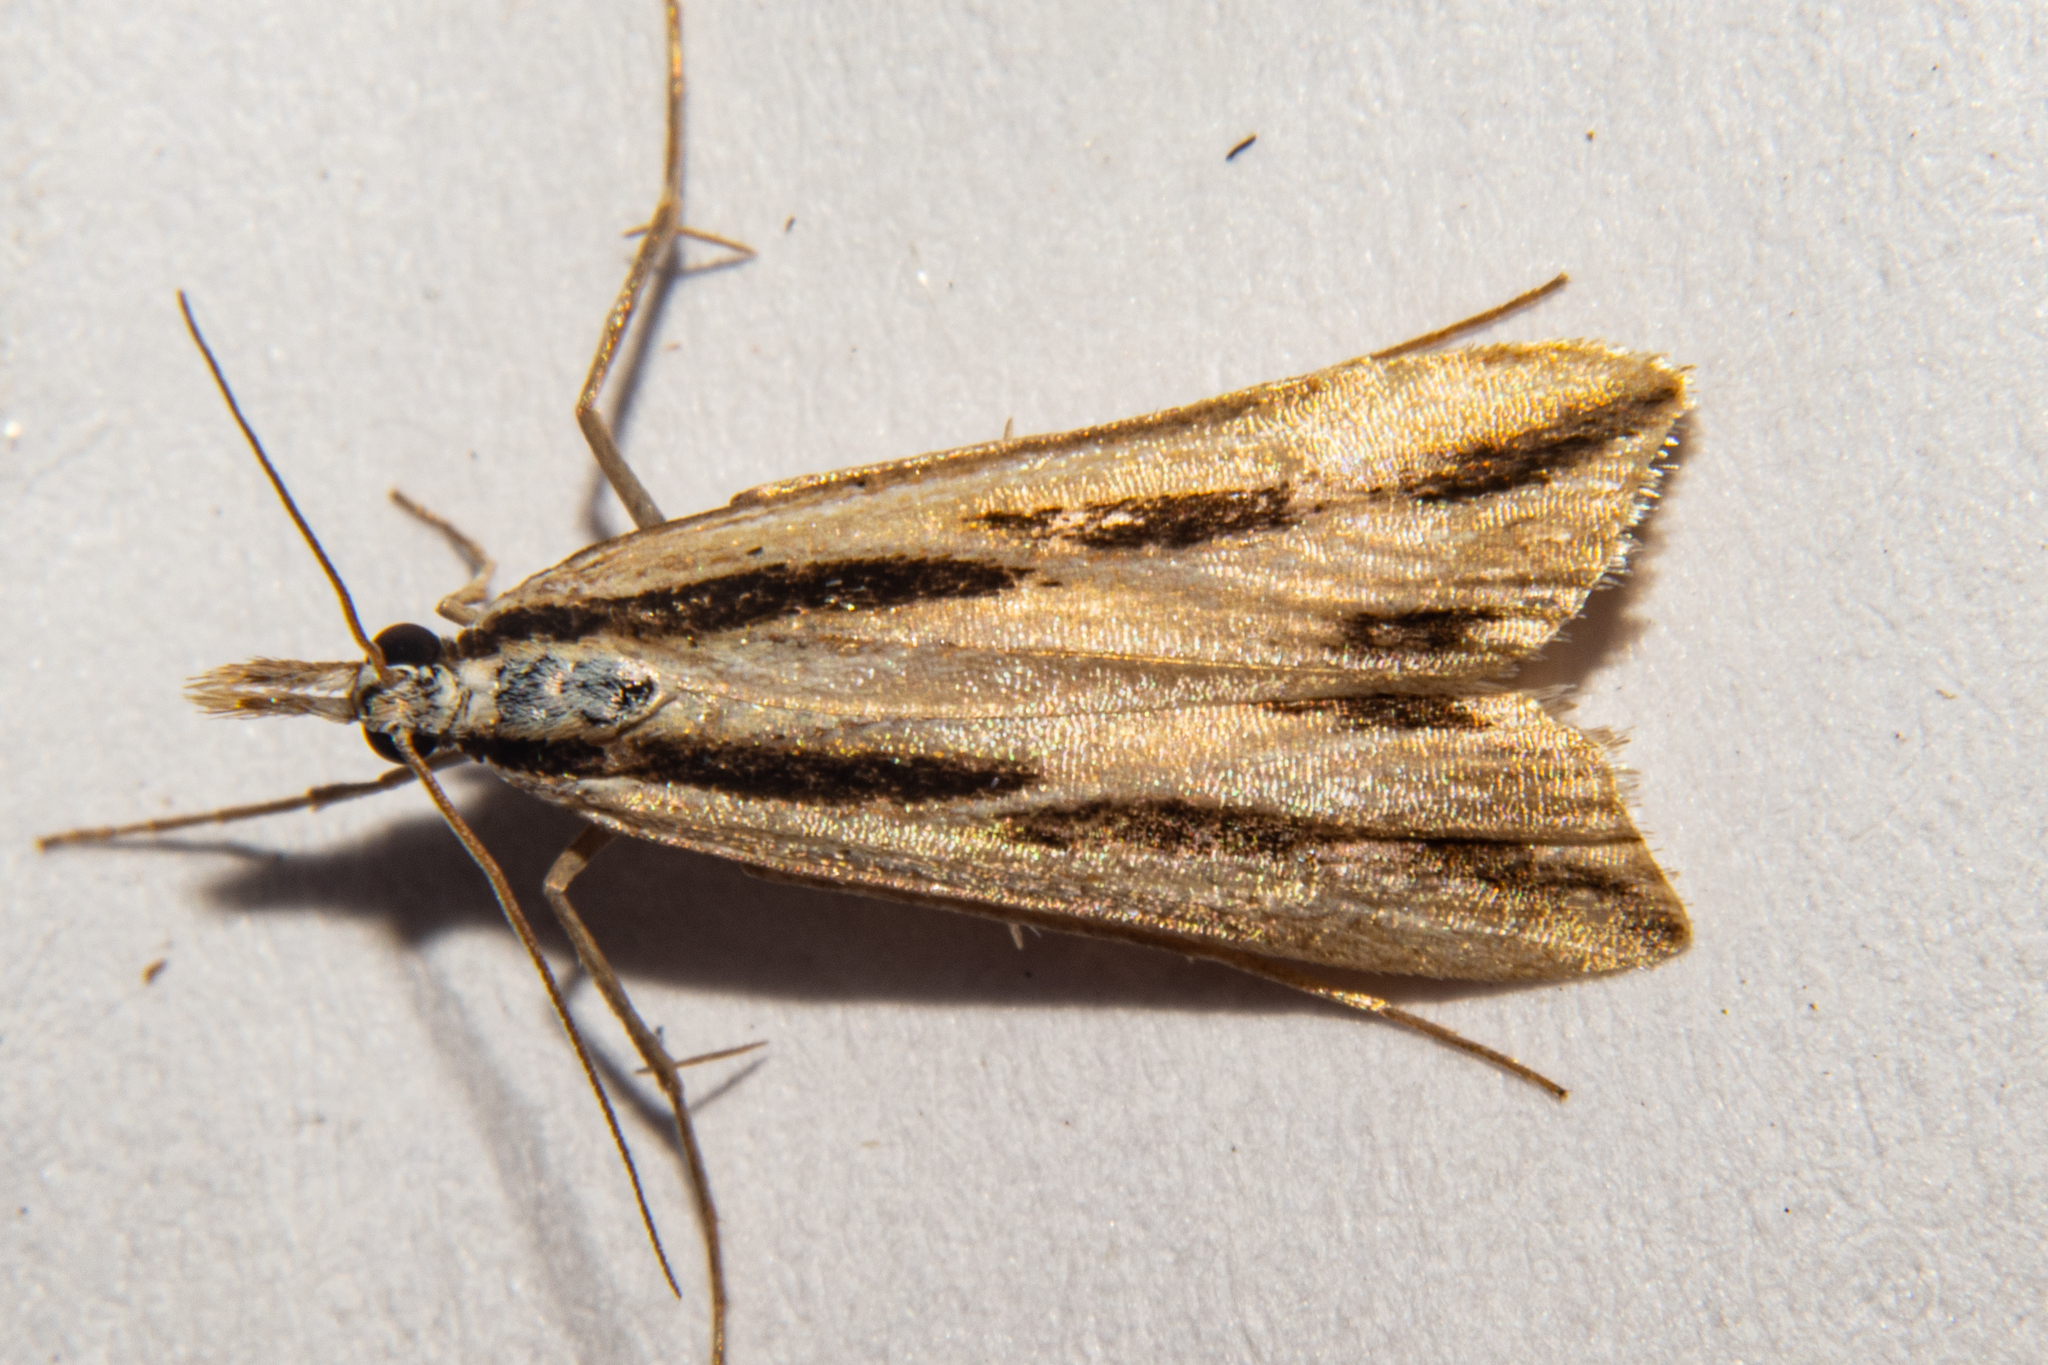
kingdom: Animalia
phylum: Arthropoda
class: Insecta
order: Lepidoptera
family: Crambidae
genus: Eudonia
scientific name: Eudonia trivirgata
